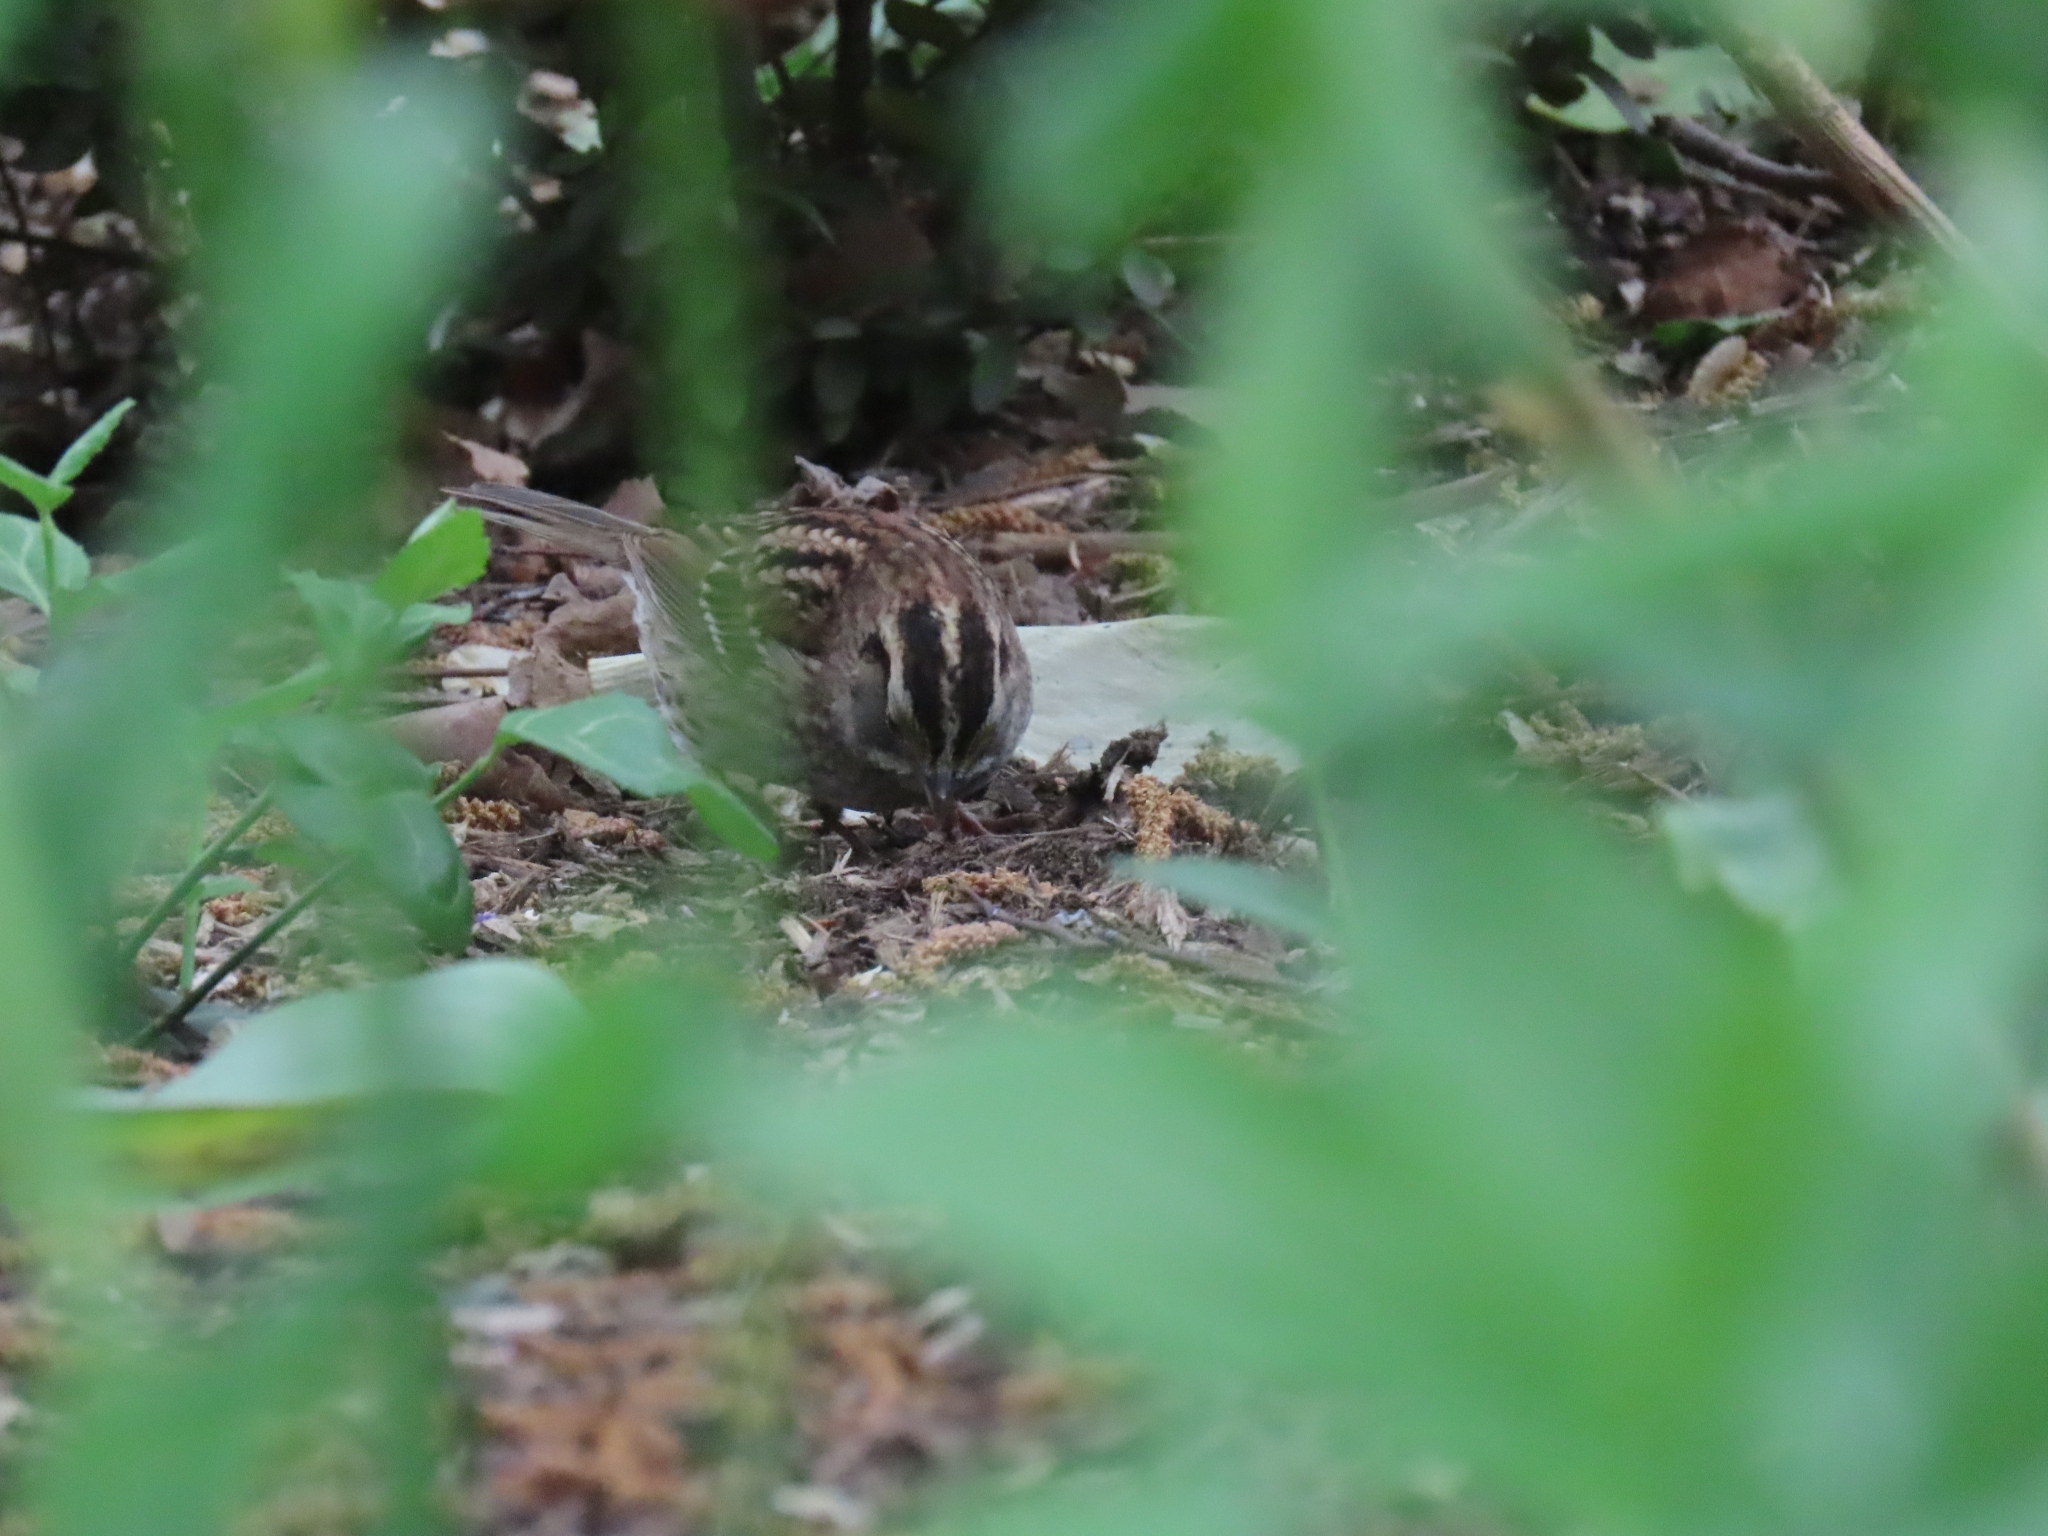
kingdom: Animalia
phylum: Chordata
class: Aves
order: Passeriformes
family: Passerellidae
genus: Zonotrichia
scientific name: Zonotrichia albicollis
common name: White-throated sparrow
